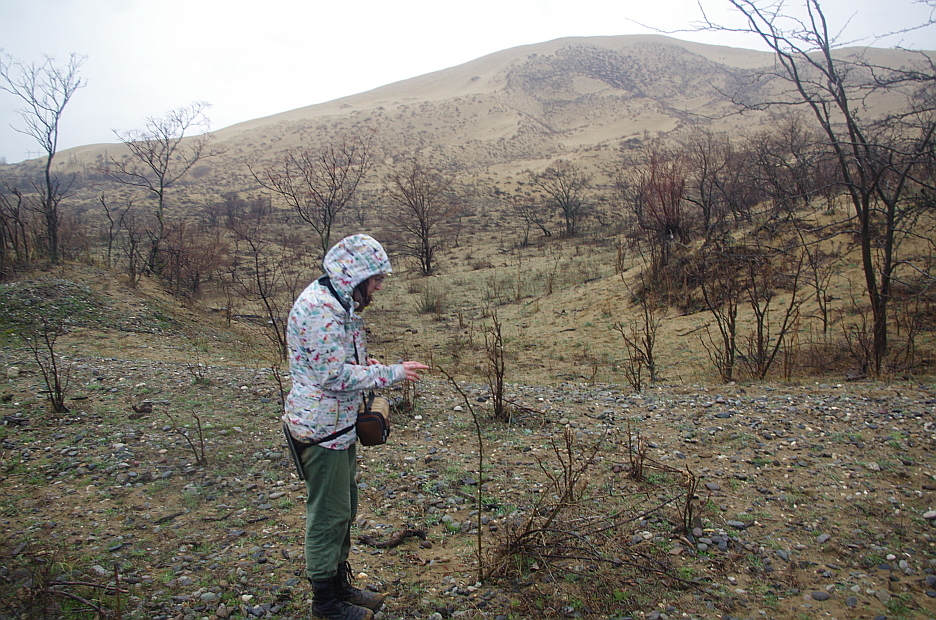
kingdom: Plantae
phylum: Tracheophyta
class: Magnoliopsida
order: Fabales
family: Fabaceae
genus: Gleditsia
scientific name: Gleditsia triacanthos
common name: Common honeylocust
